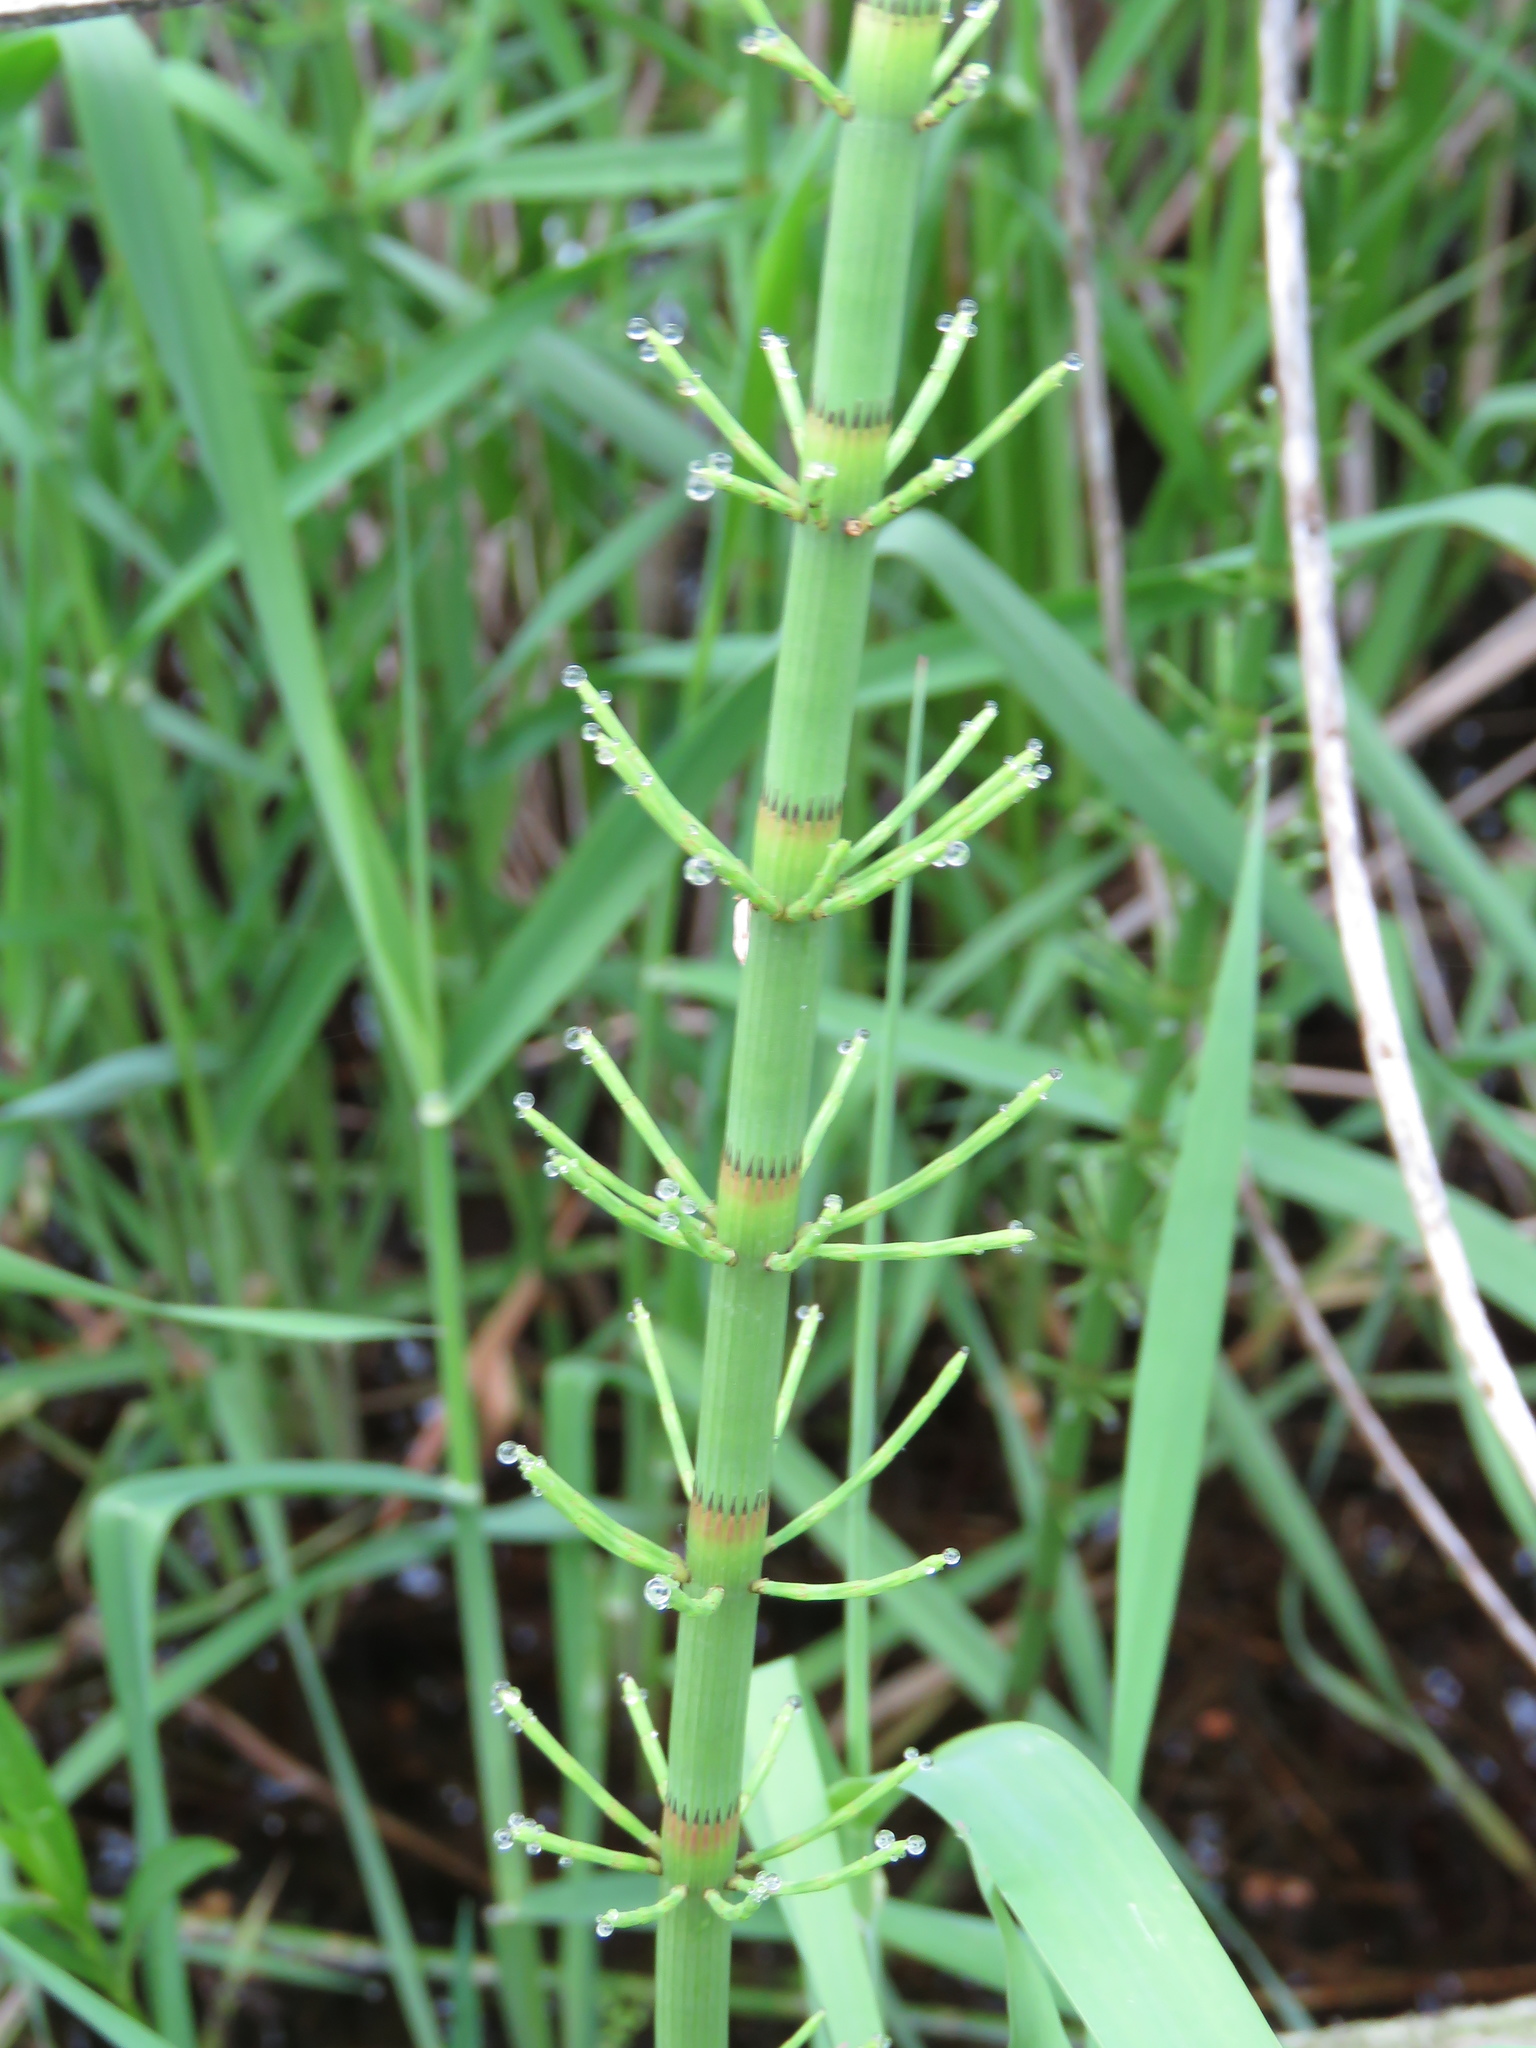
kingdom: Plantae
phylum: Tracheophyta
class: Polypodiopsida
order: Equisetales
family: Equisetaceae
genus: Equisetum
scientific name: Equisetum fluviatile
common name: Water horsetail
